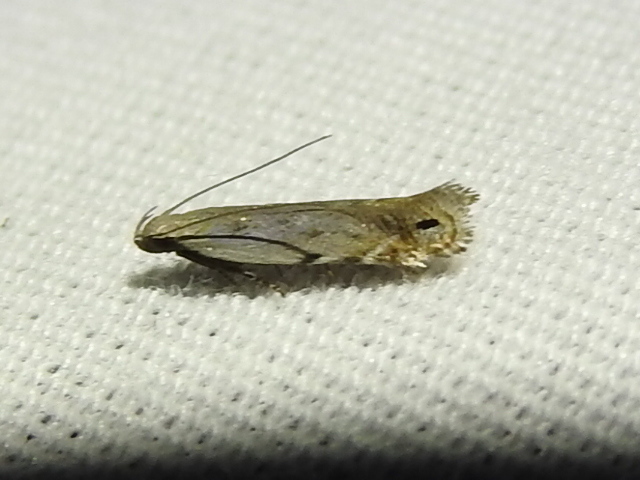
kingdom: Animalia
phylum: Arthropoda
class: Insecta
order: Lepidoptera
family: Gelechiidae
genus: Battaristis
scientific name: Battaristis concinnusella
